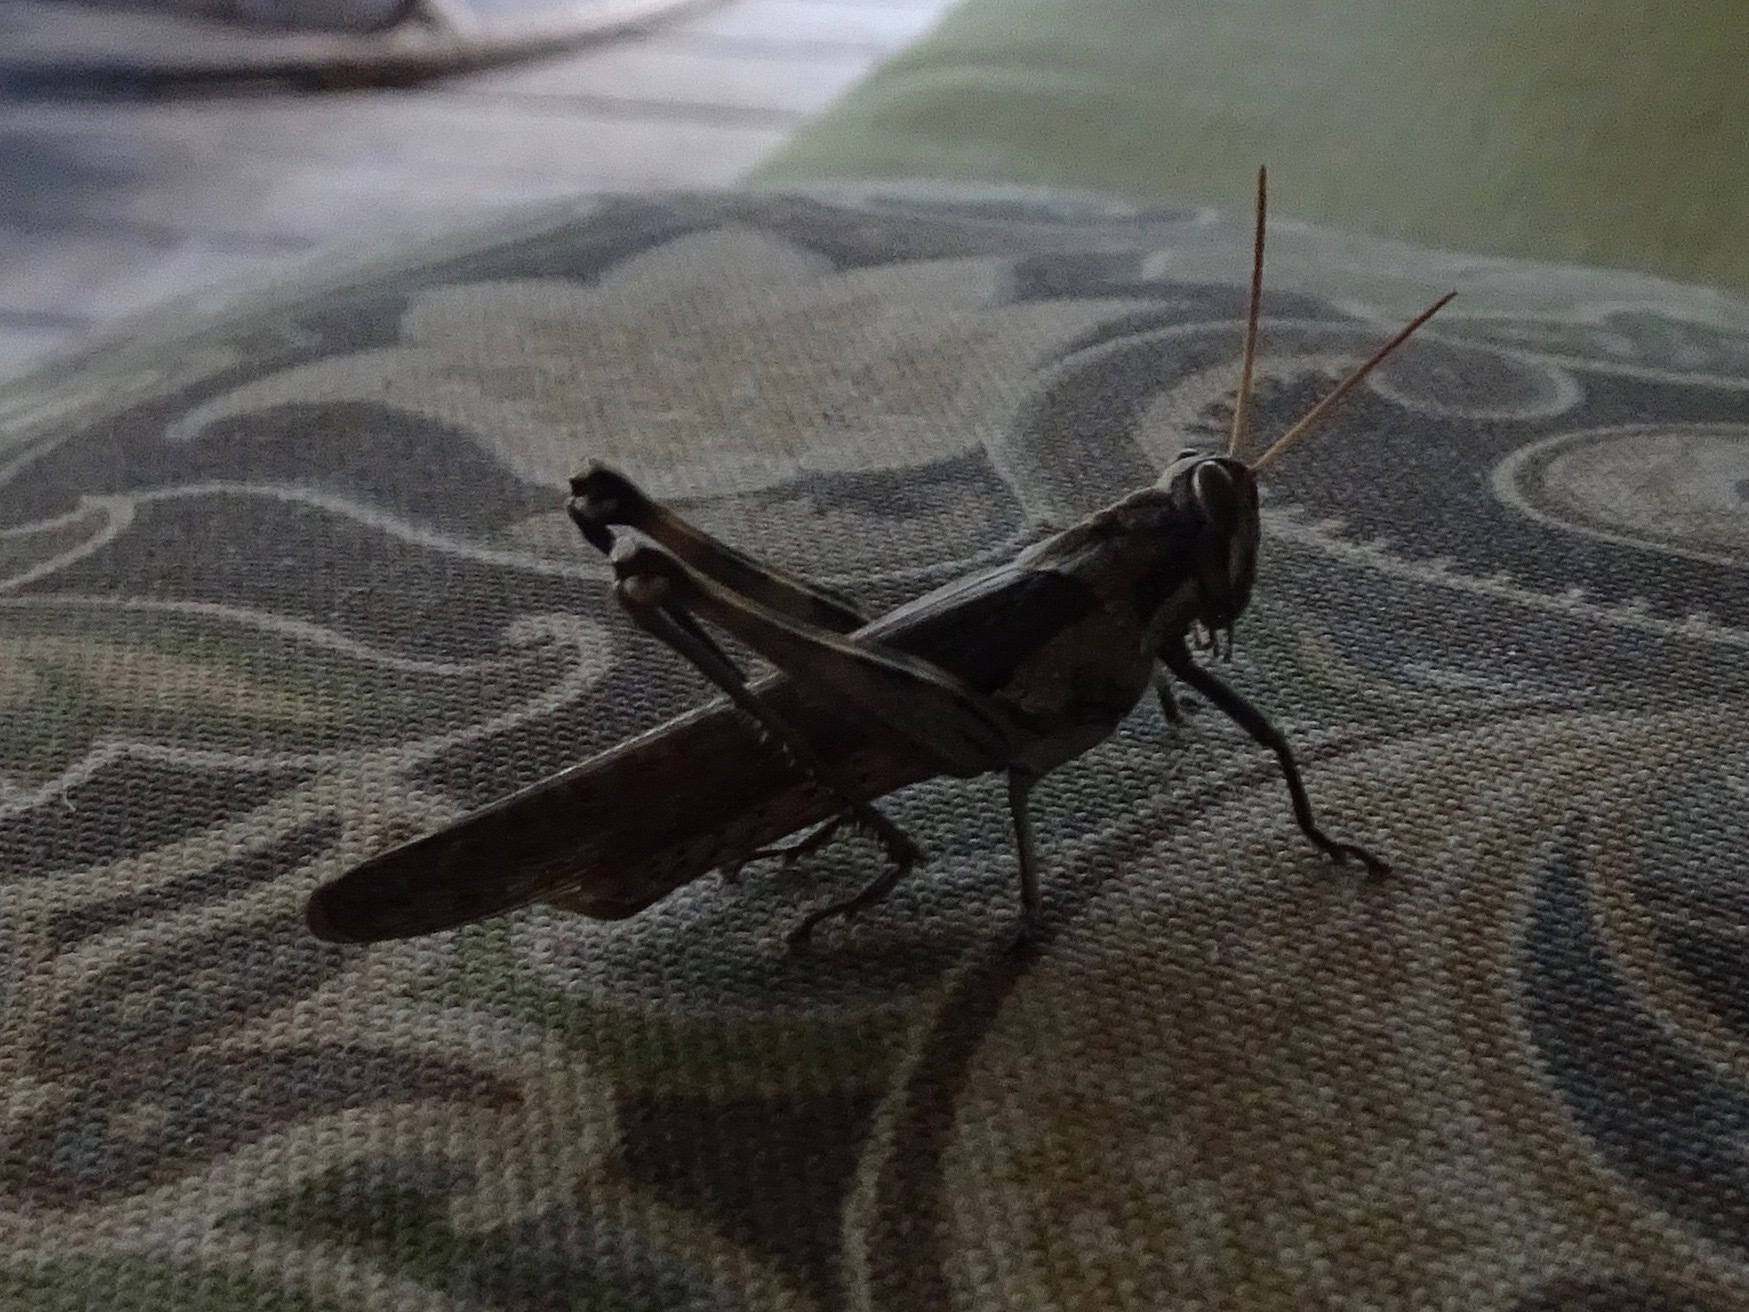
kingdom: Animalia
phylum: Arthropoda
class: Insecta
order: Orthoptera
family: Acrididae
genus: Schistocerca
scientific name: Schistocerca nitens
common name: Vagrant grasshopper
